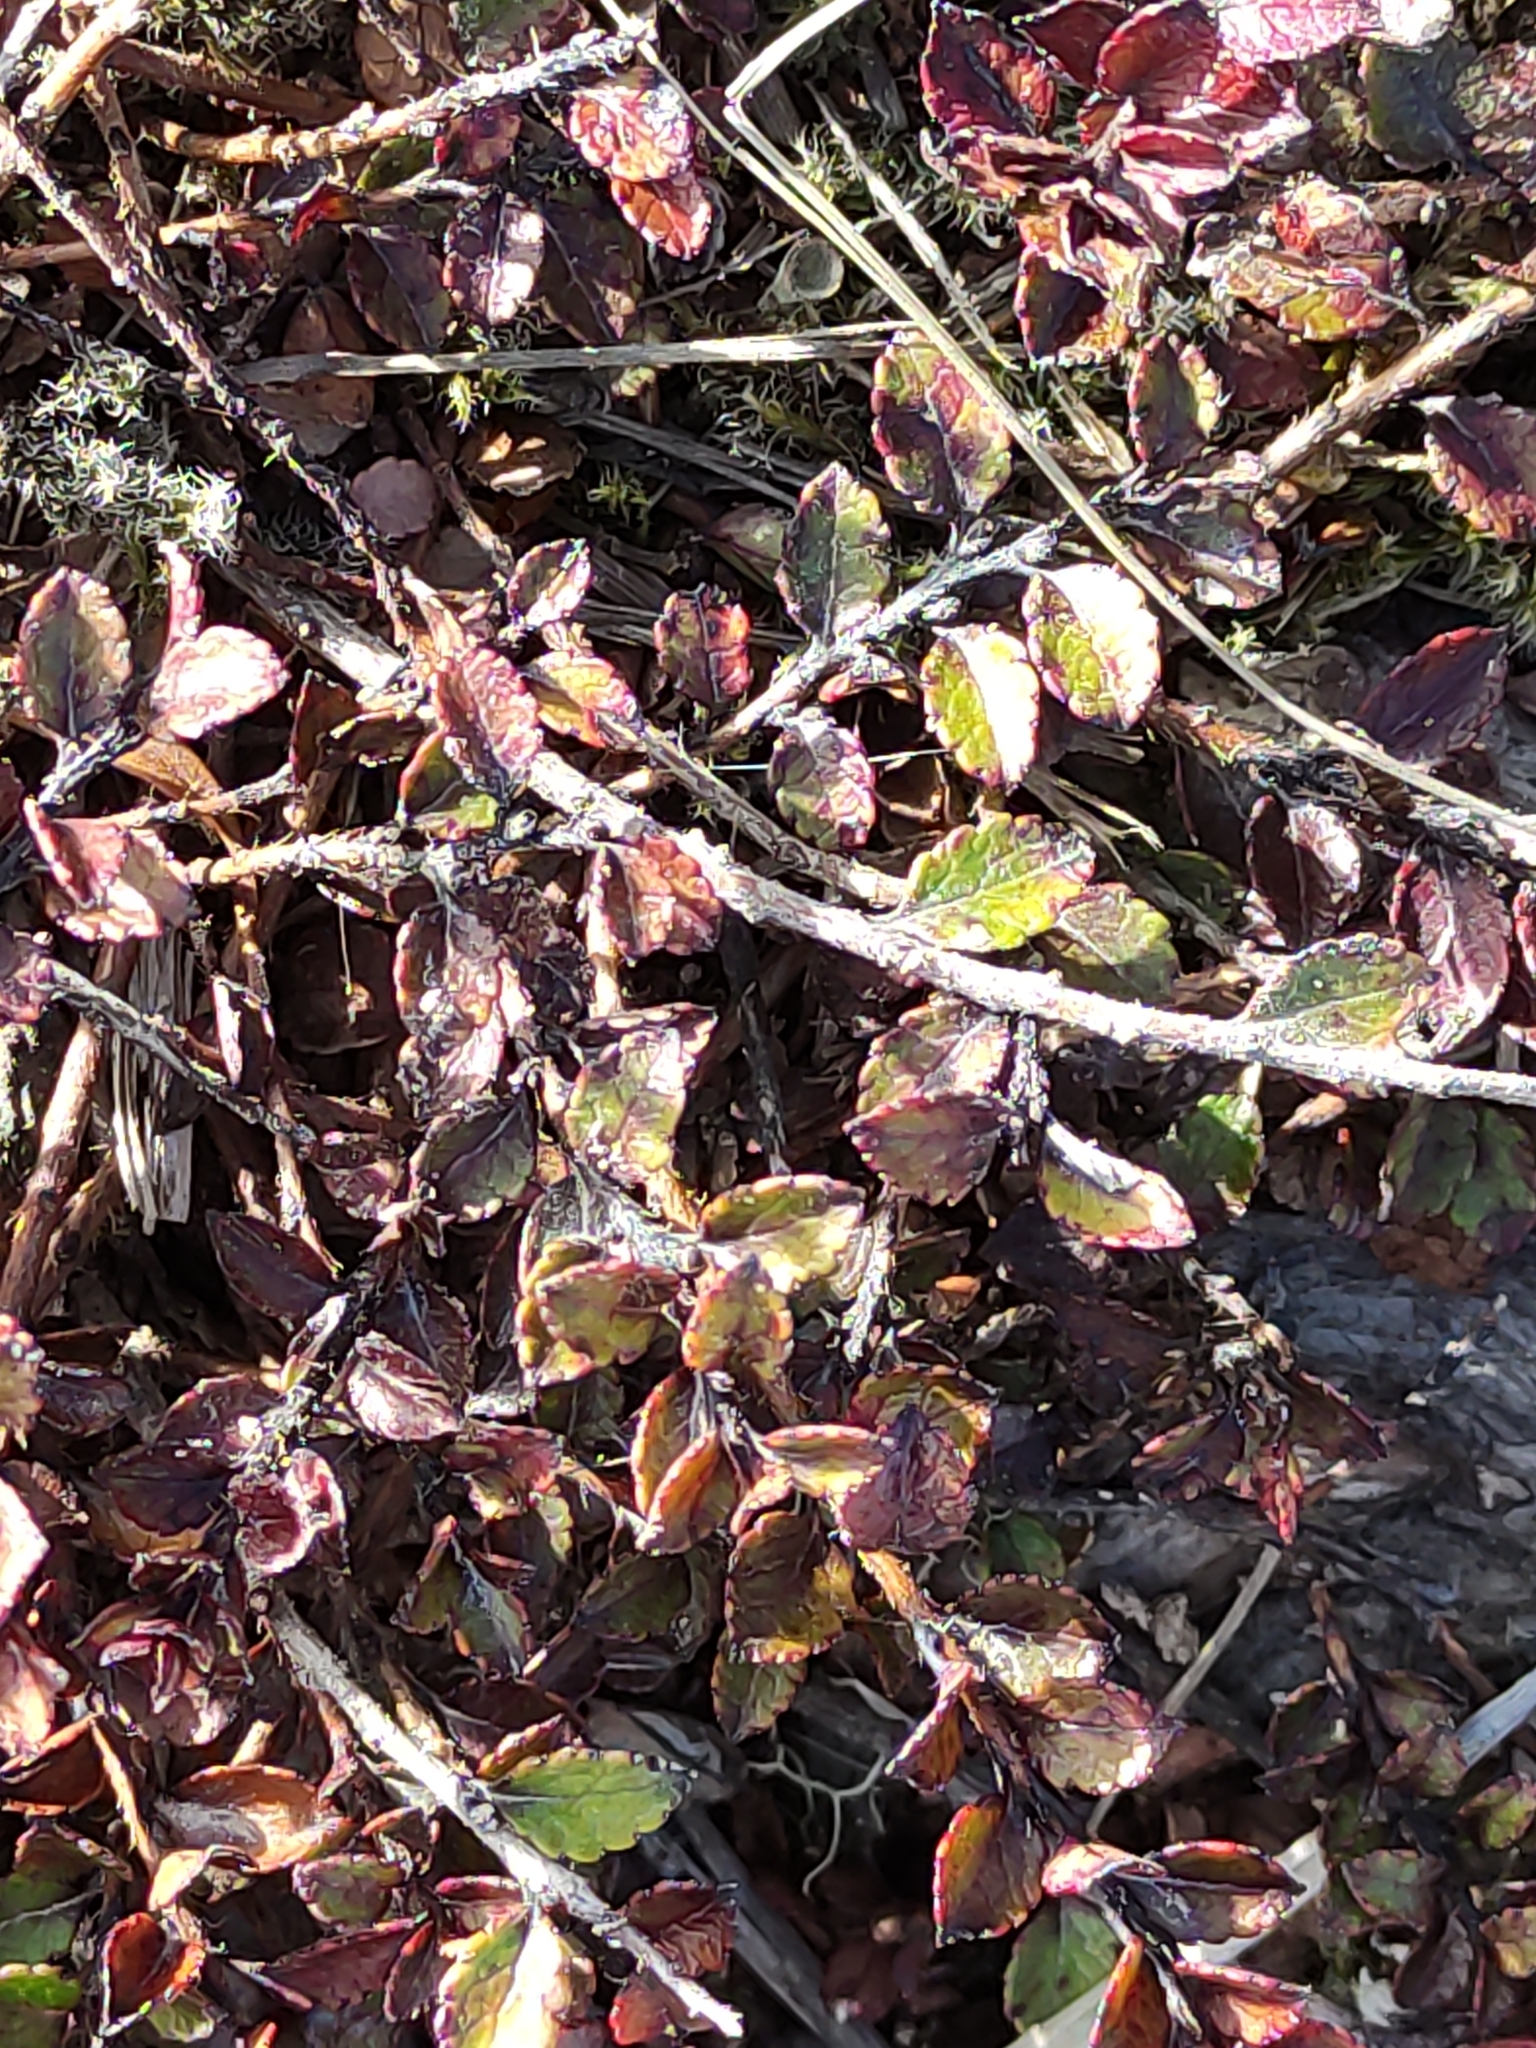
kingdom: Plantae
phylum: Tracheophyta
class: Magnoliopsida
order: Ericales
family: Ericaceae
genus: Gaultheria
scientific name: Gaultheria depressa
